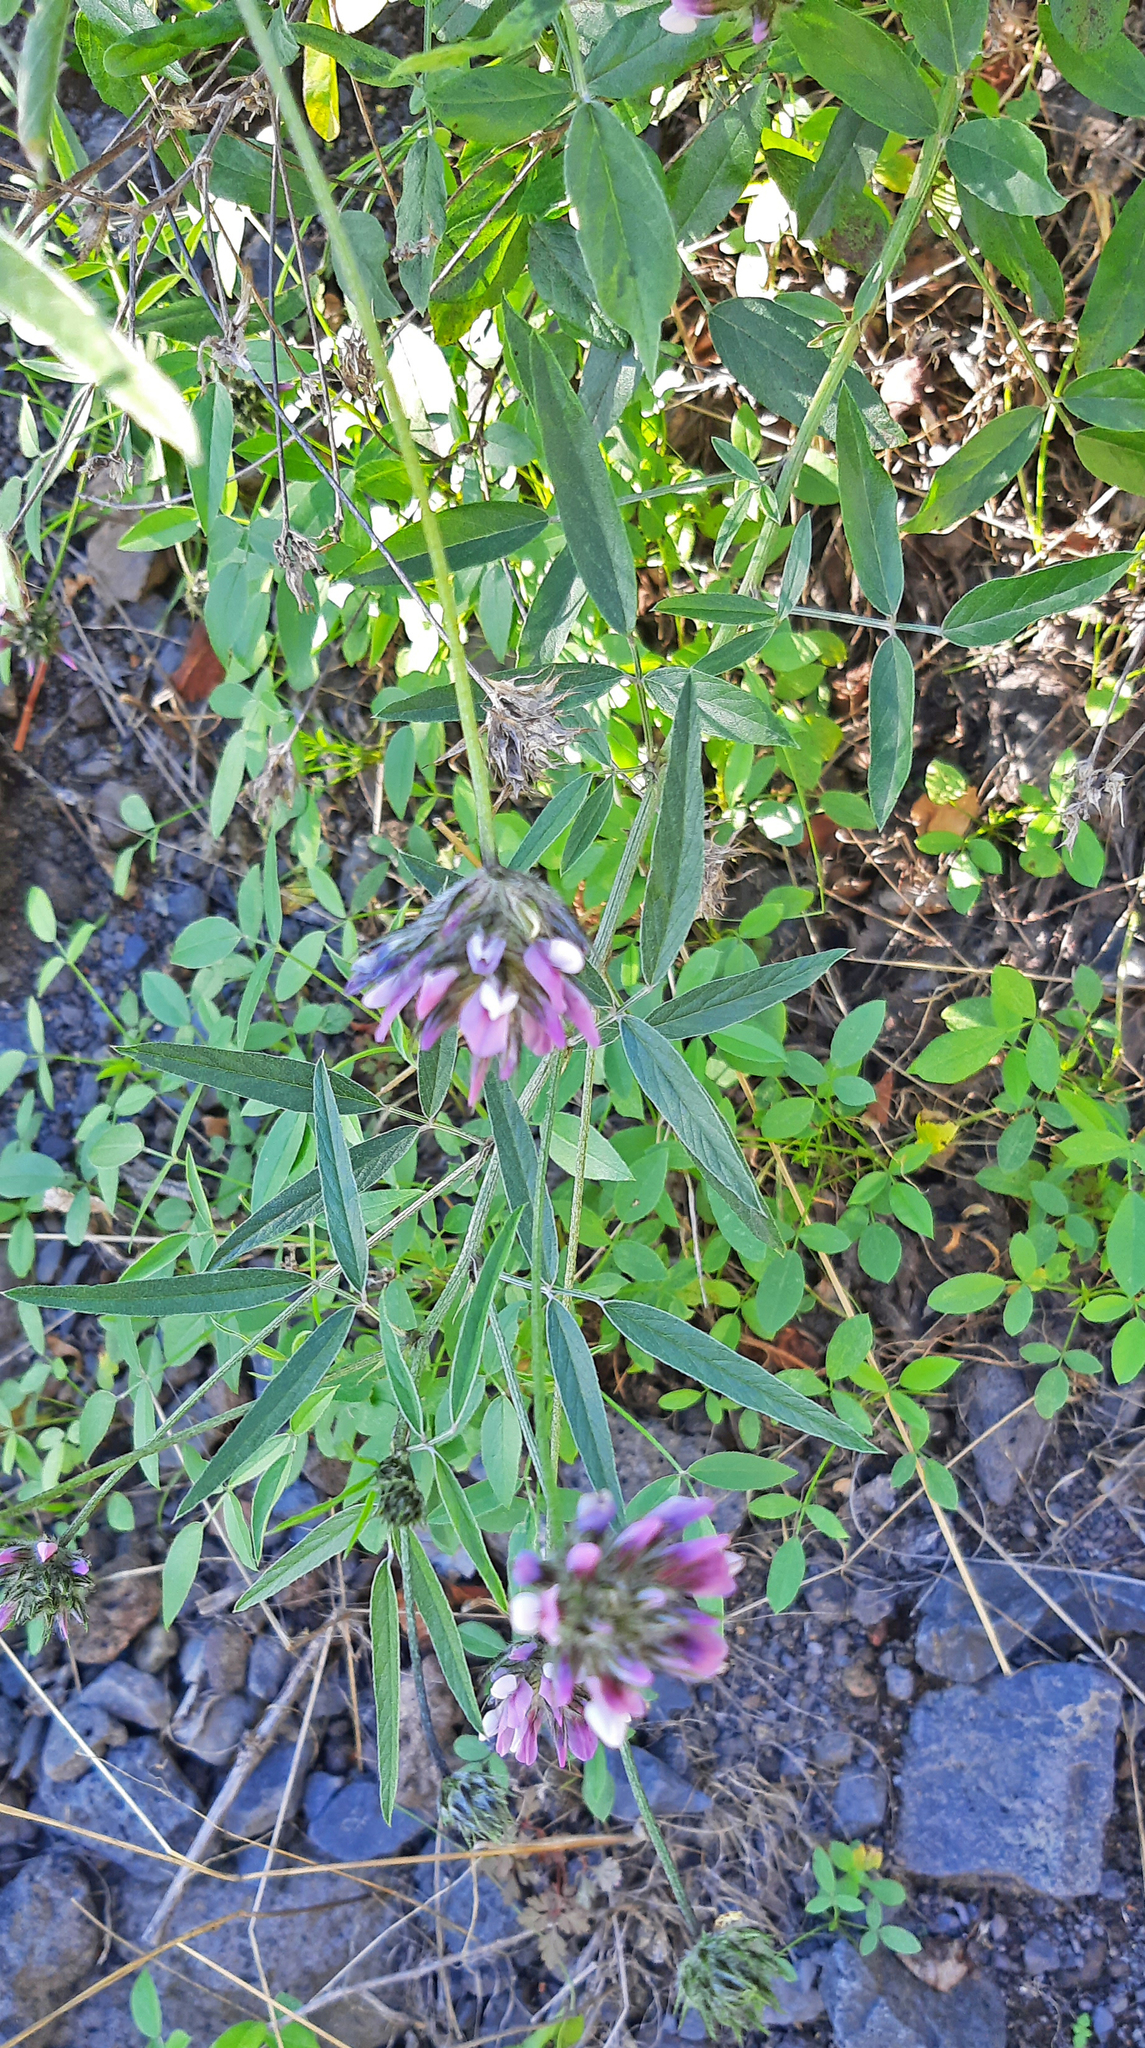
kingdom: Plantae
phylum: Tracheophyta
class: Magnoliopsida
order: Fabales
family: Fabaceae
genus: Bituminaria
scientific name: Bituminaria bituminosa
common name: Arabian pea
